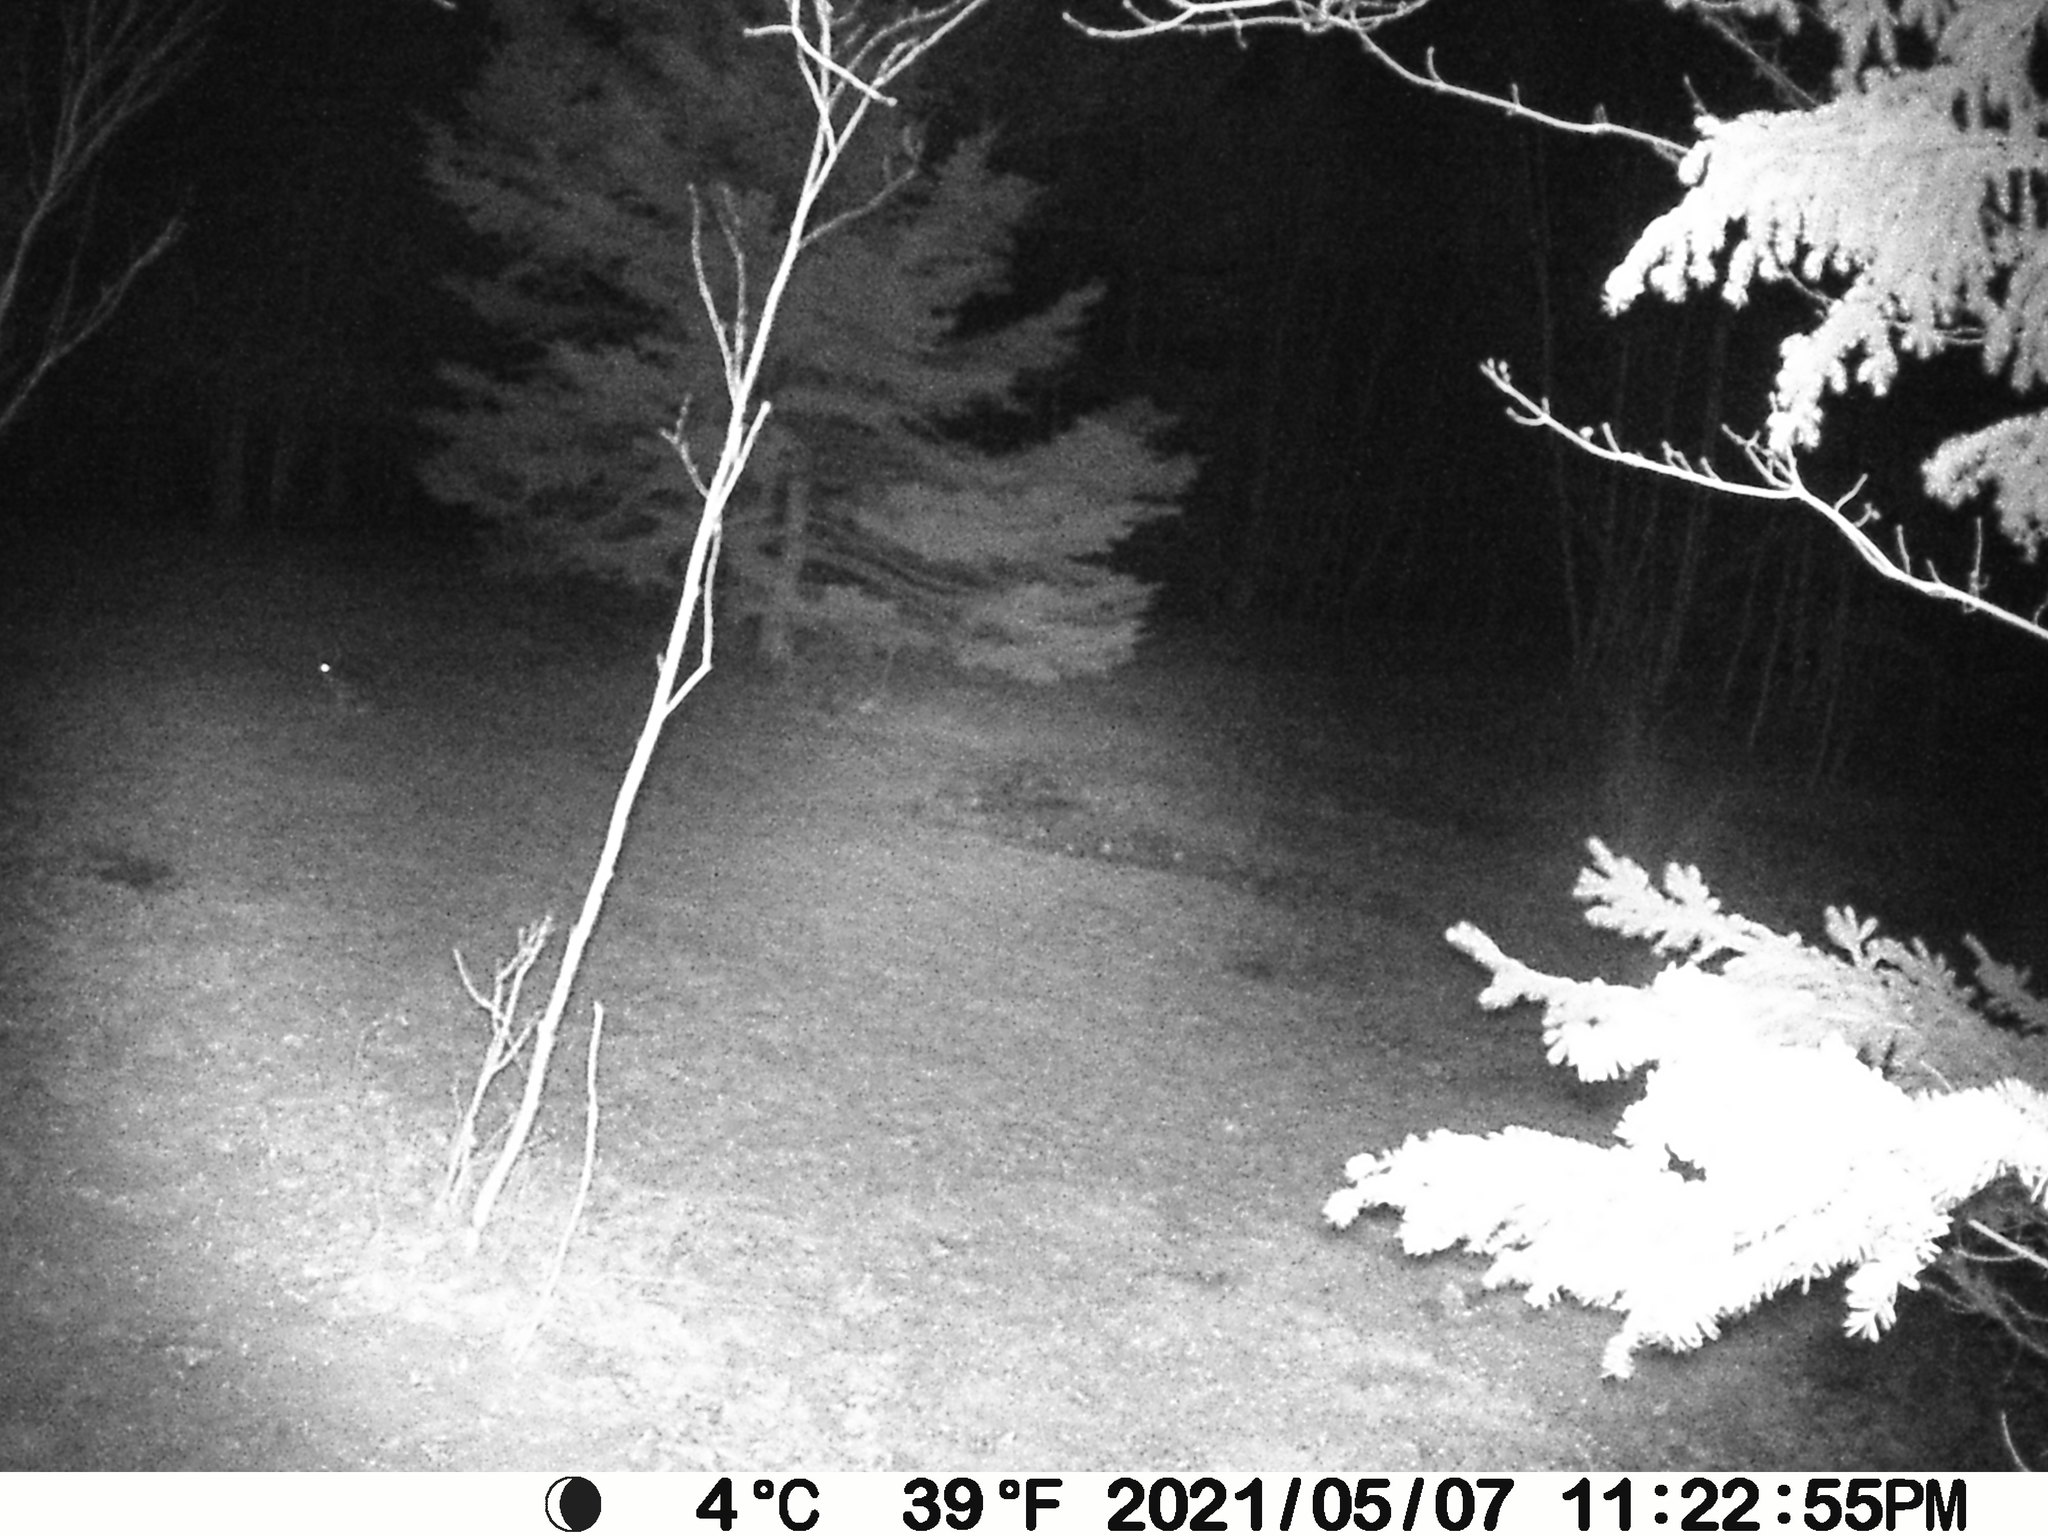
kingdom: Animalia
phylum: Chordata
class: Mammalia
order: Lagomorpha
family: Leporidae
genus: Lepus
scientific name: Lepus americanus
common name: Snowshoe hare
